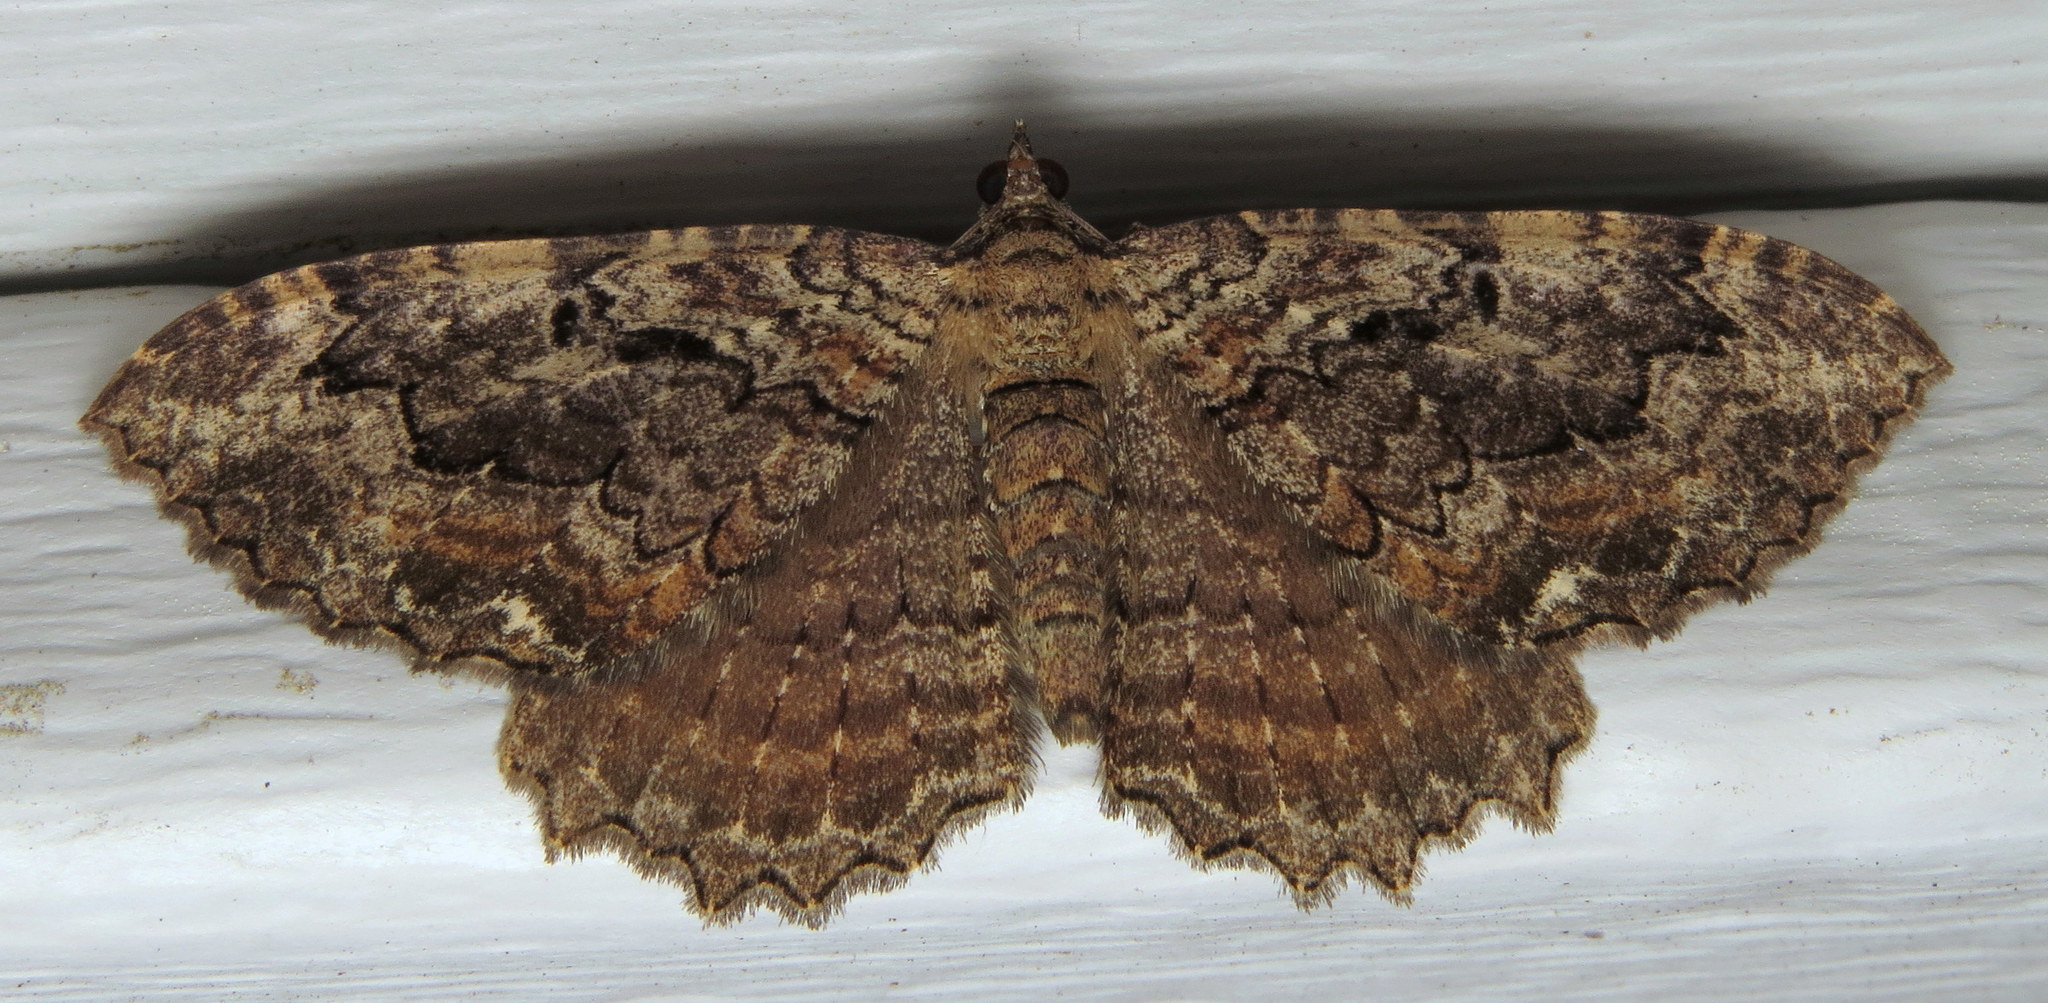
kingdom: Animalia
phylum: Arthropoda
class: Insecta
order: Lepidoptera
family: Geometridae
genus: Rheumaptera
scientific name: Rheumaptera
